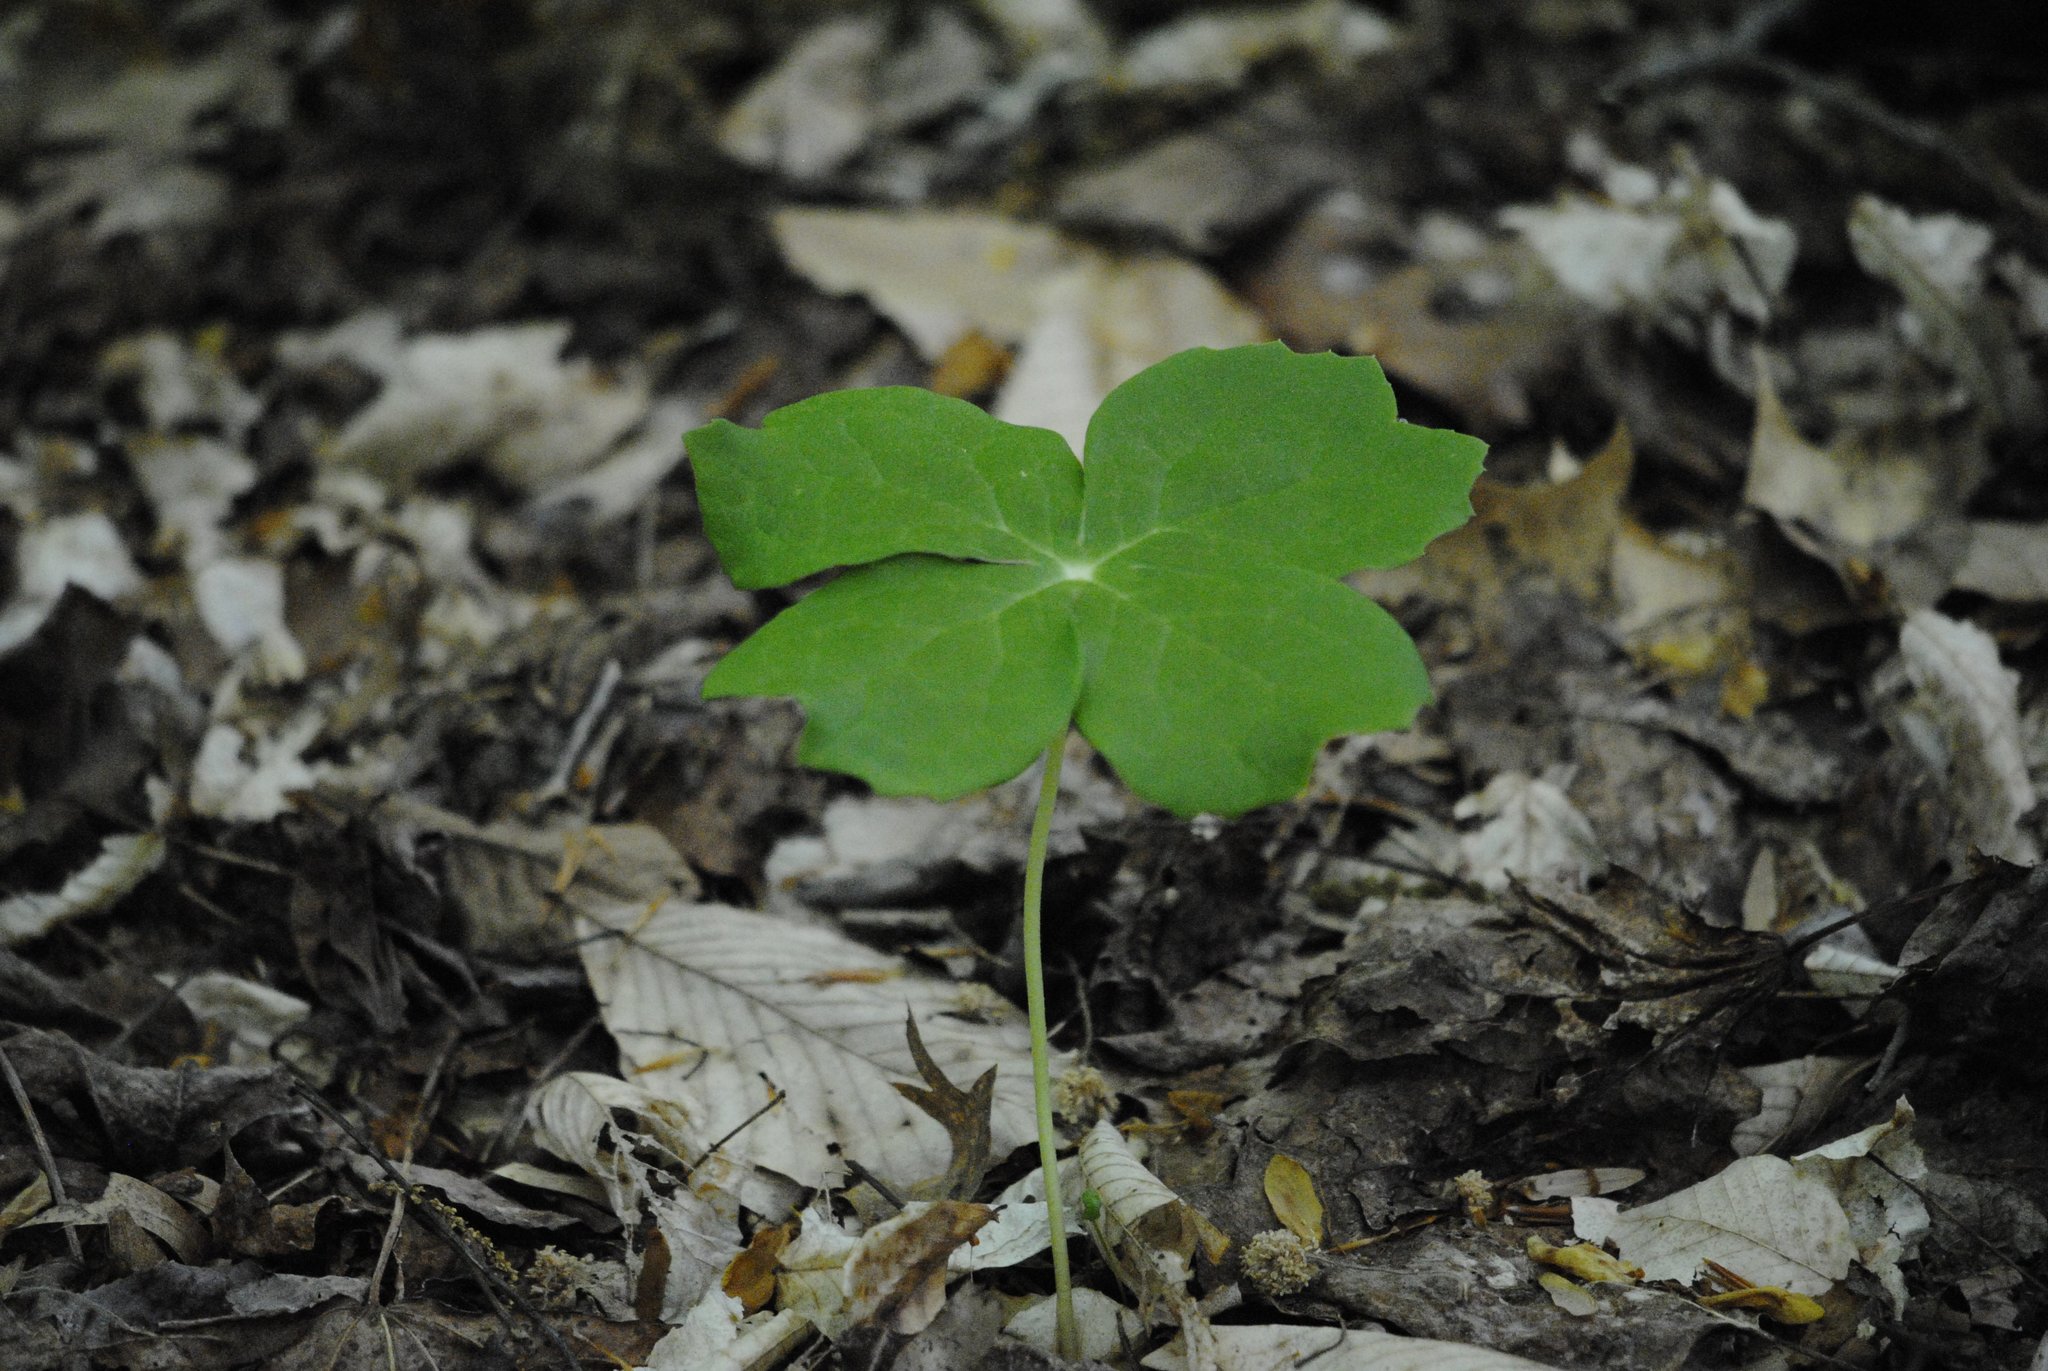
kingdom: Plantae
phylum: Tracheophyta
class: Magnoliopsida
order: Ranunculales
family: Berberidaceae
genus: Podophyllum
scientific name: Podophyllum peltatum
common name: Wild mandrake
